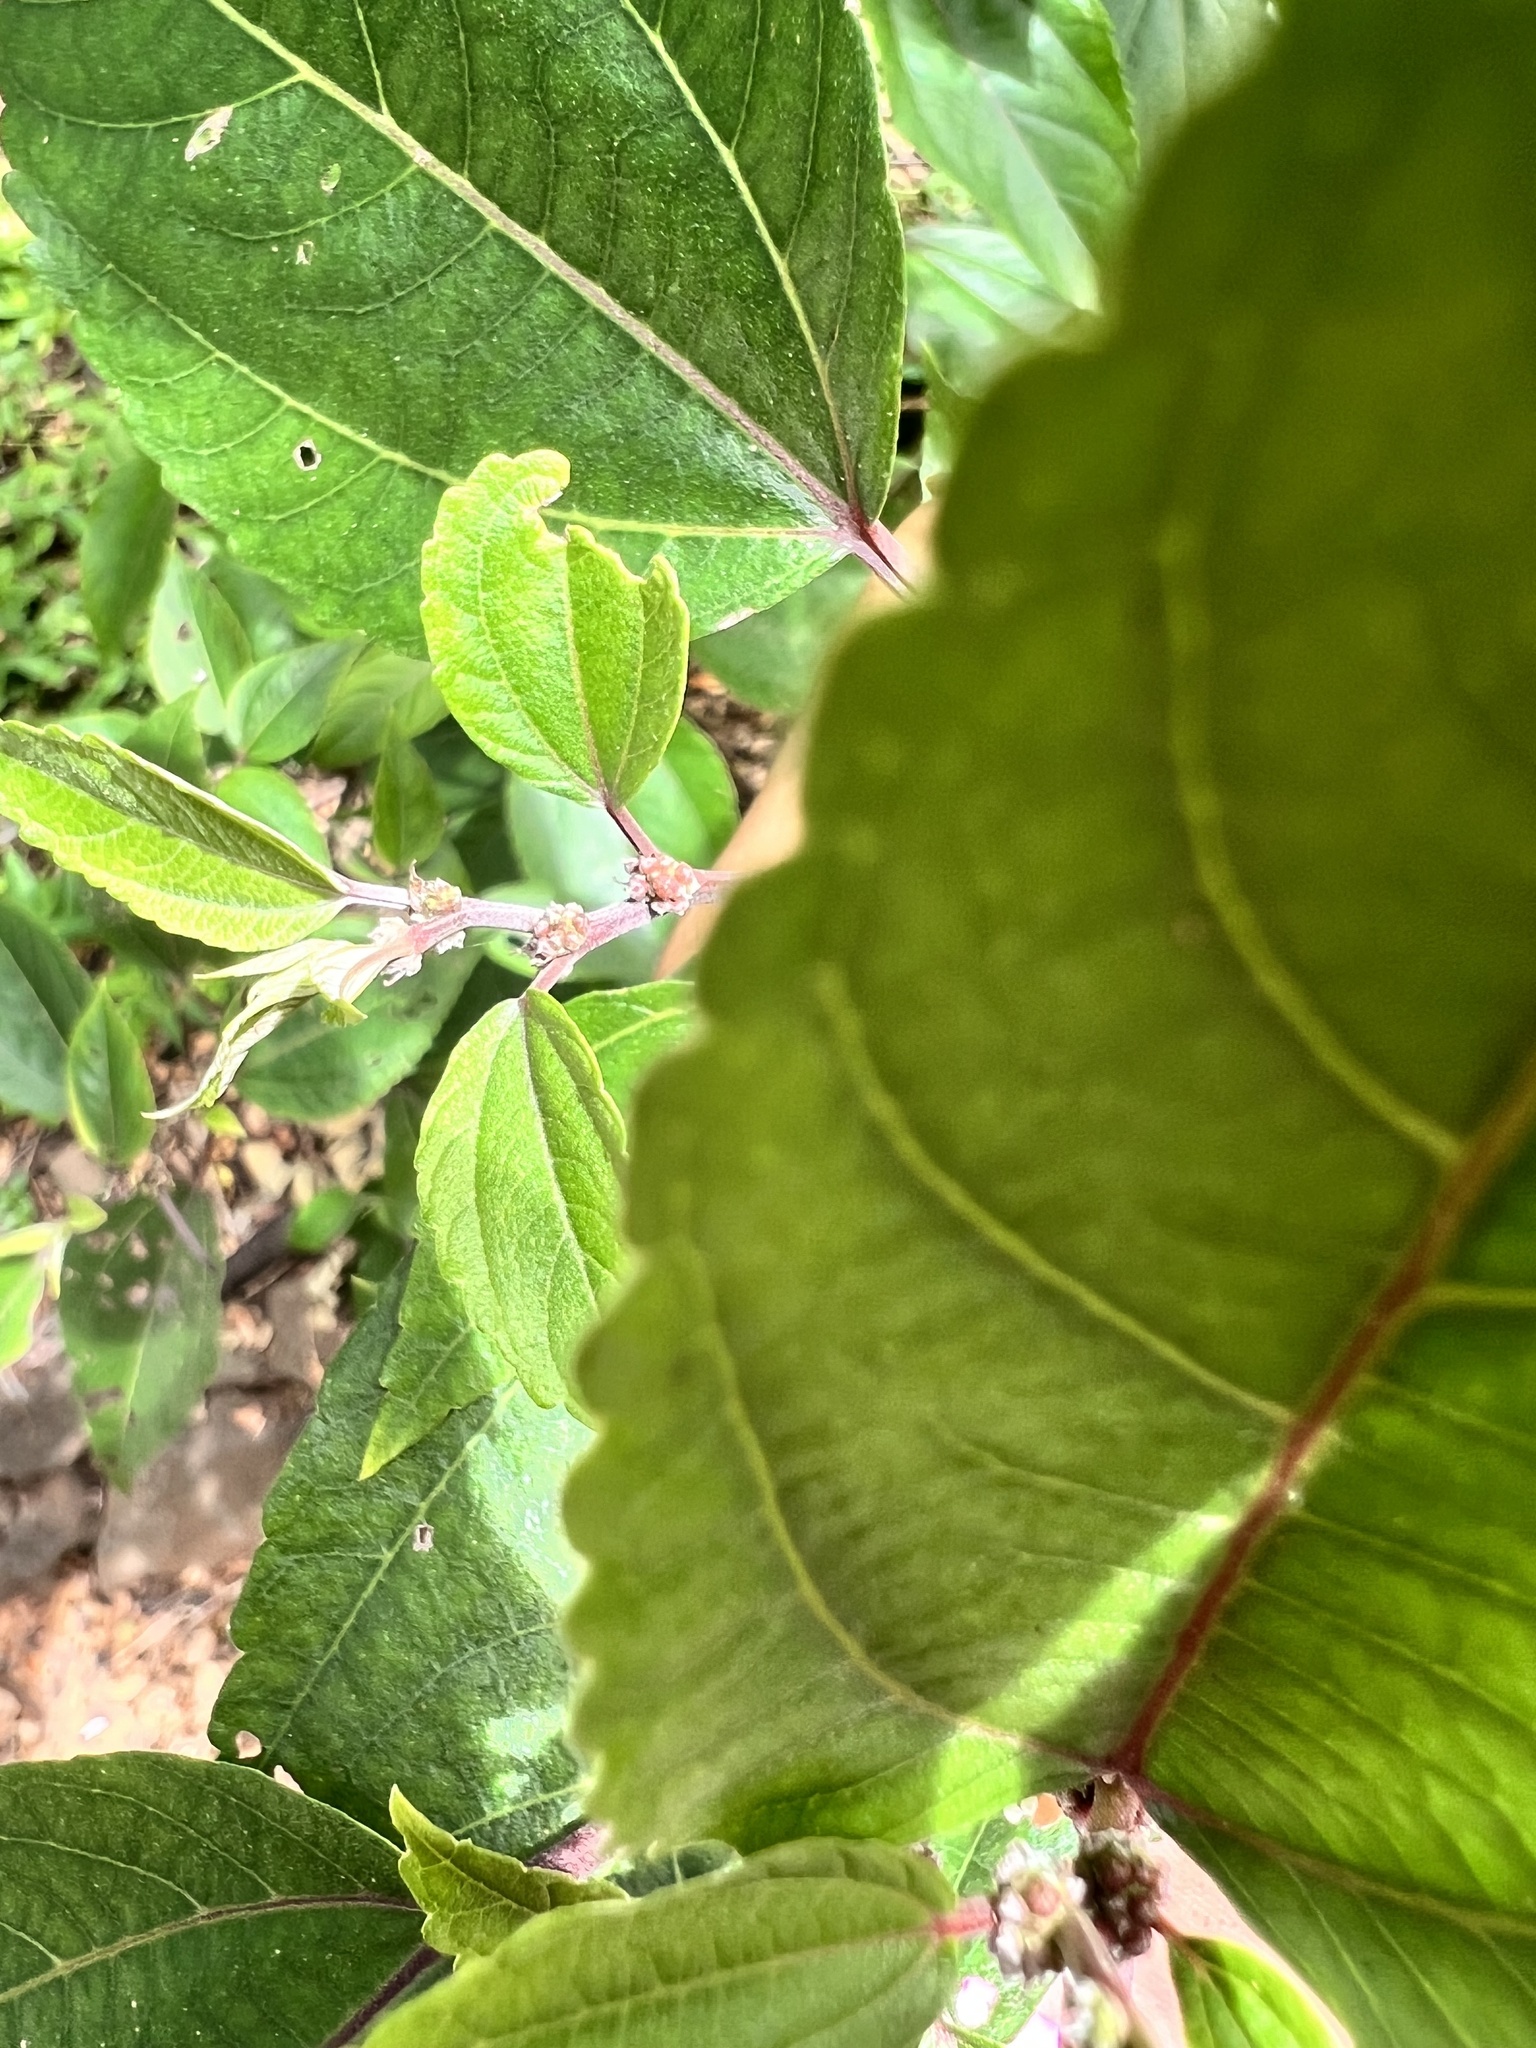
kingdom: Plantae
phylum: Tracheophyta
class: Magnoliopsida
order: Rosales
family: Urticaceae
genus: Pipturus
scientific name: Pipturus albidus
